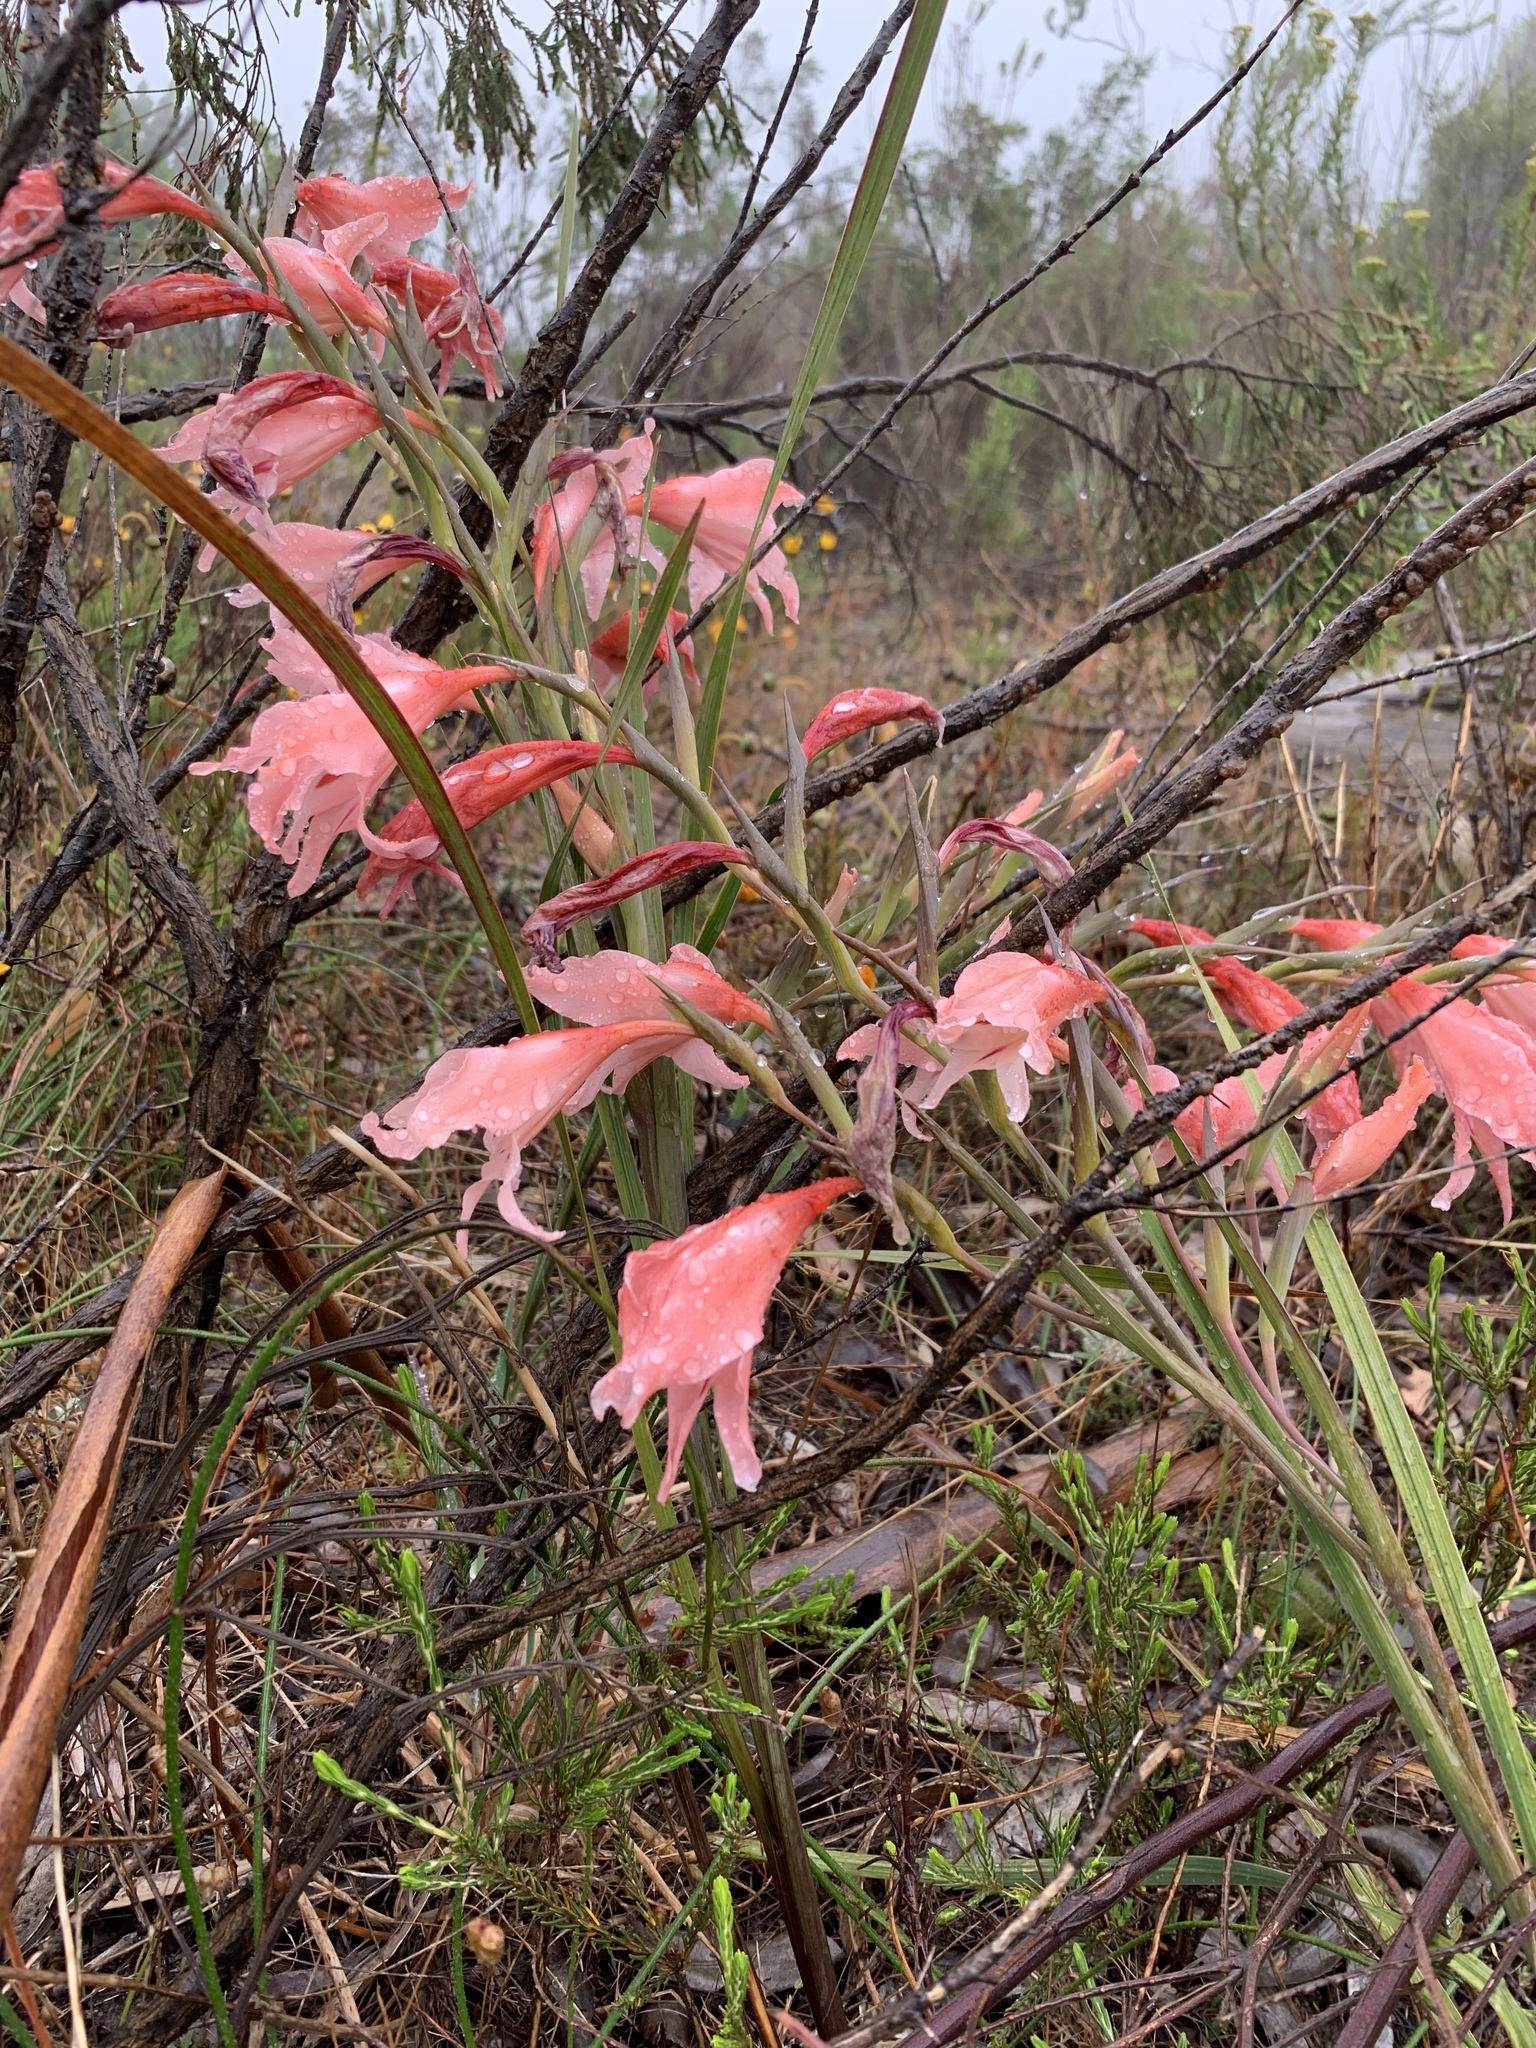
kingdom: Plantae
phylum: Tracheophyta
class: Liliopsida
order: Asparagales
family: Iridaceae
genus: Gladiolus
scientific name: Gladiolus carneus
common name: Painted-lady
